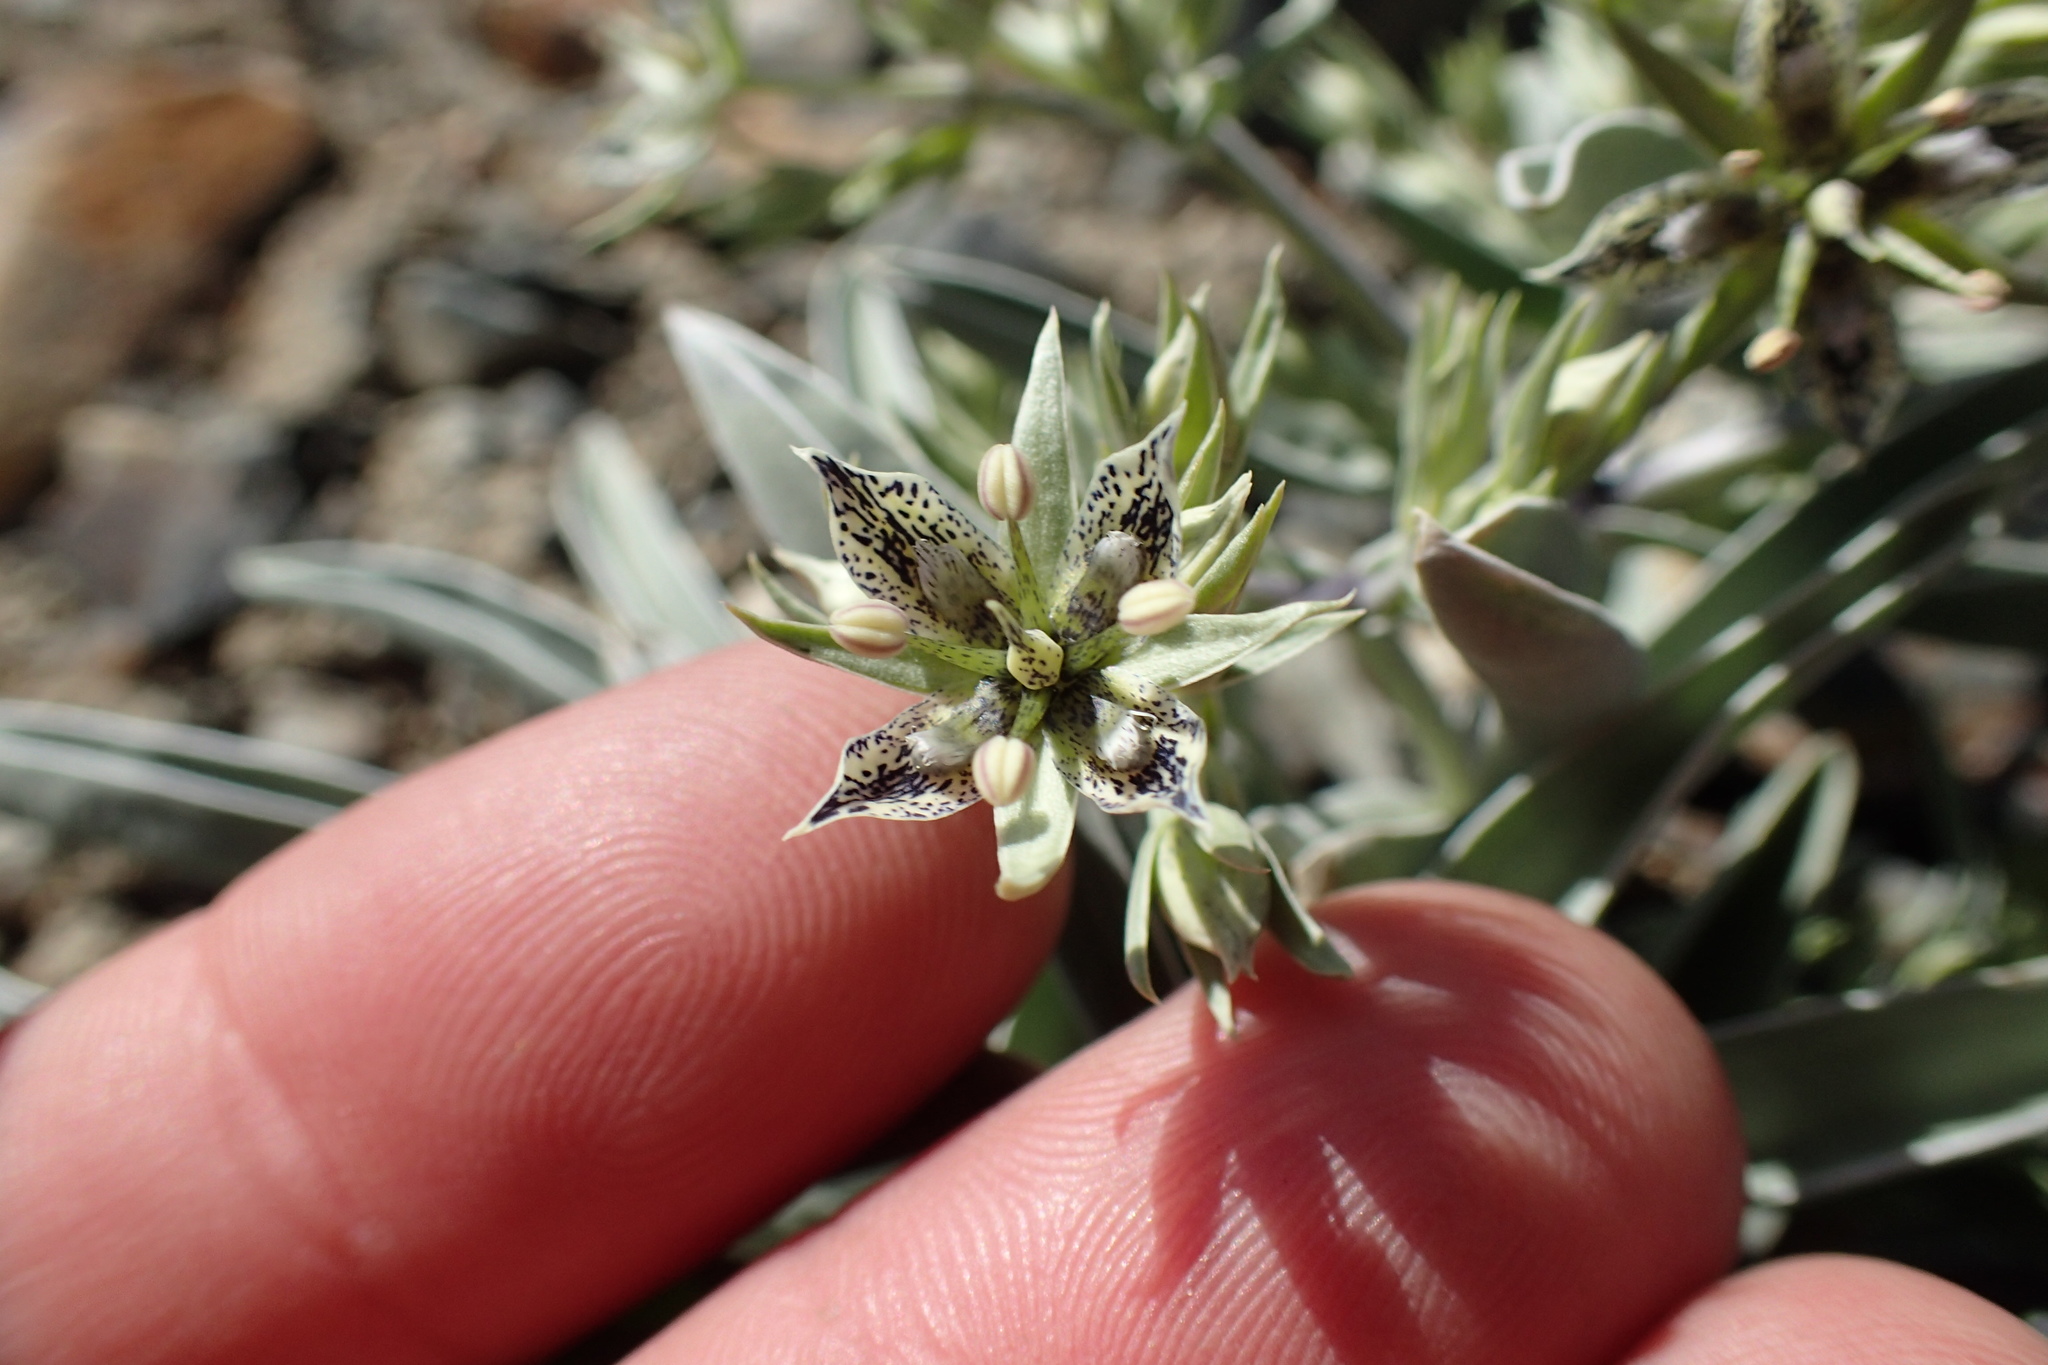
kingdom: Plantae
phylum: Tracheophyta
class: Magnoliopsida
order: Gentianales
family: Gentianaceae
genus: Frasera
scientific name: Frasera puberulenta
